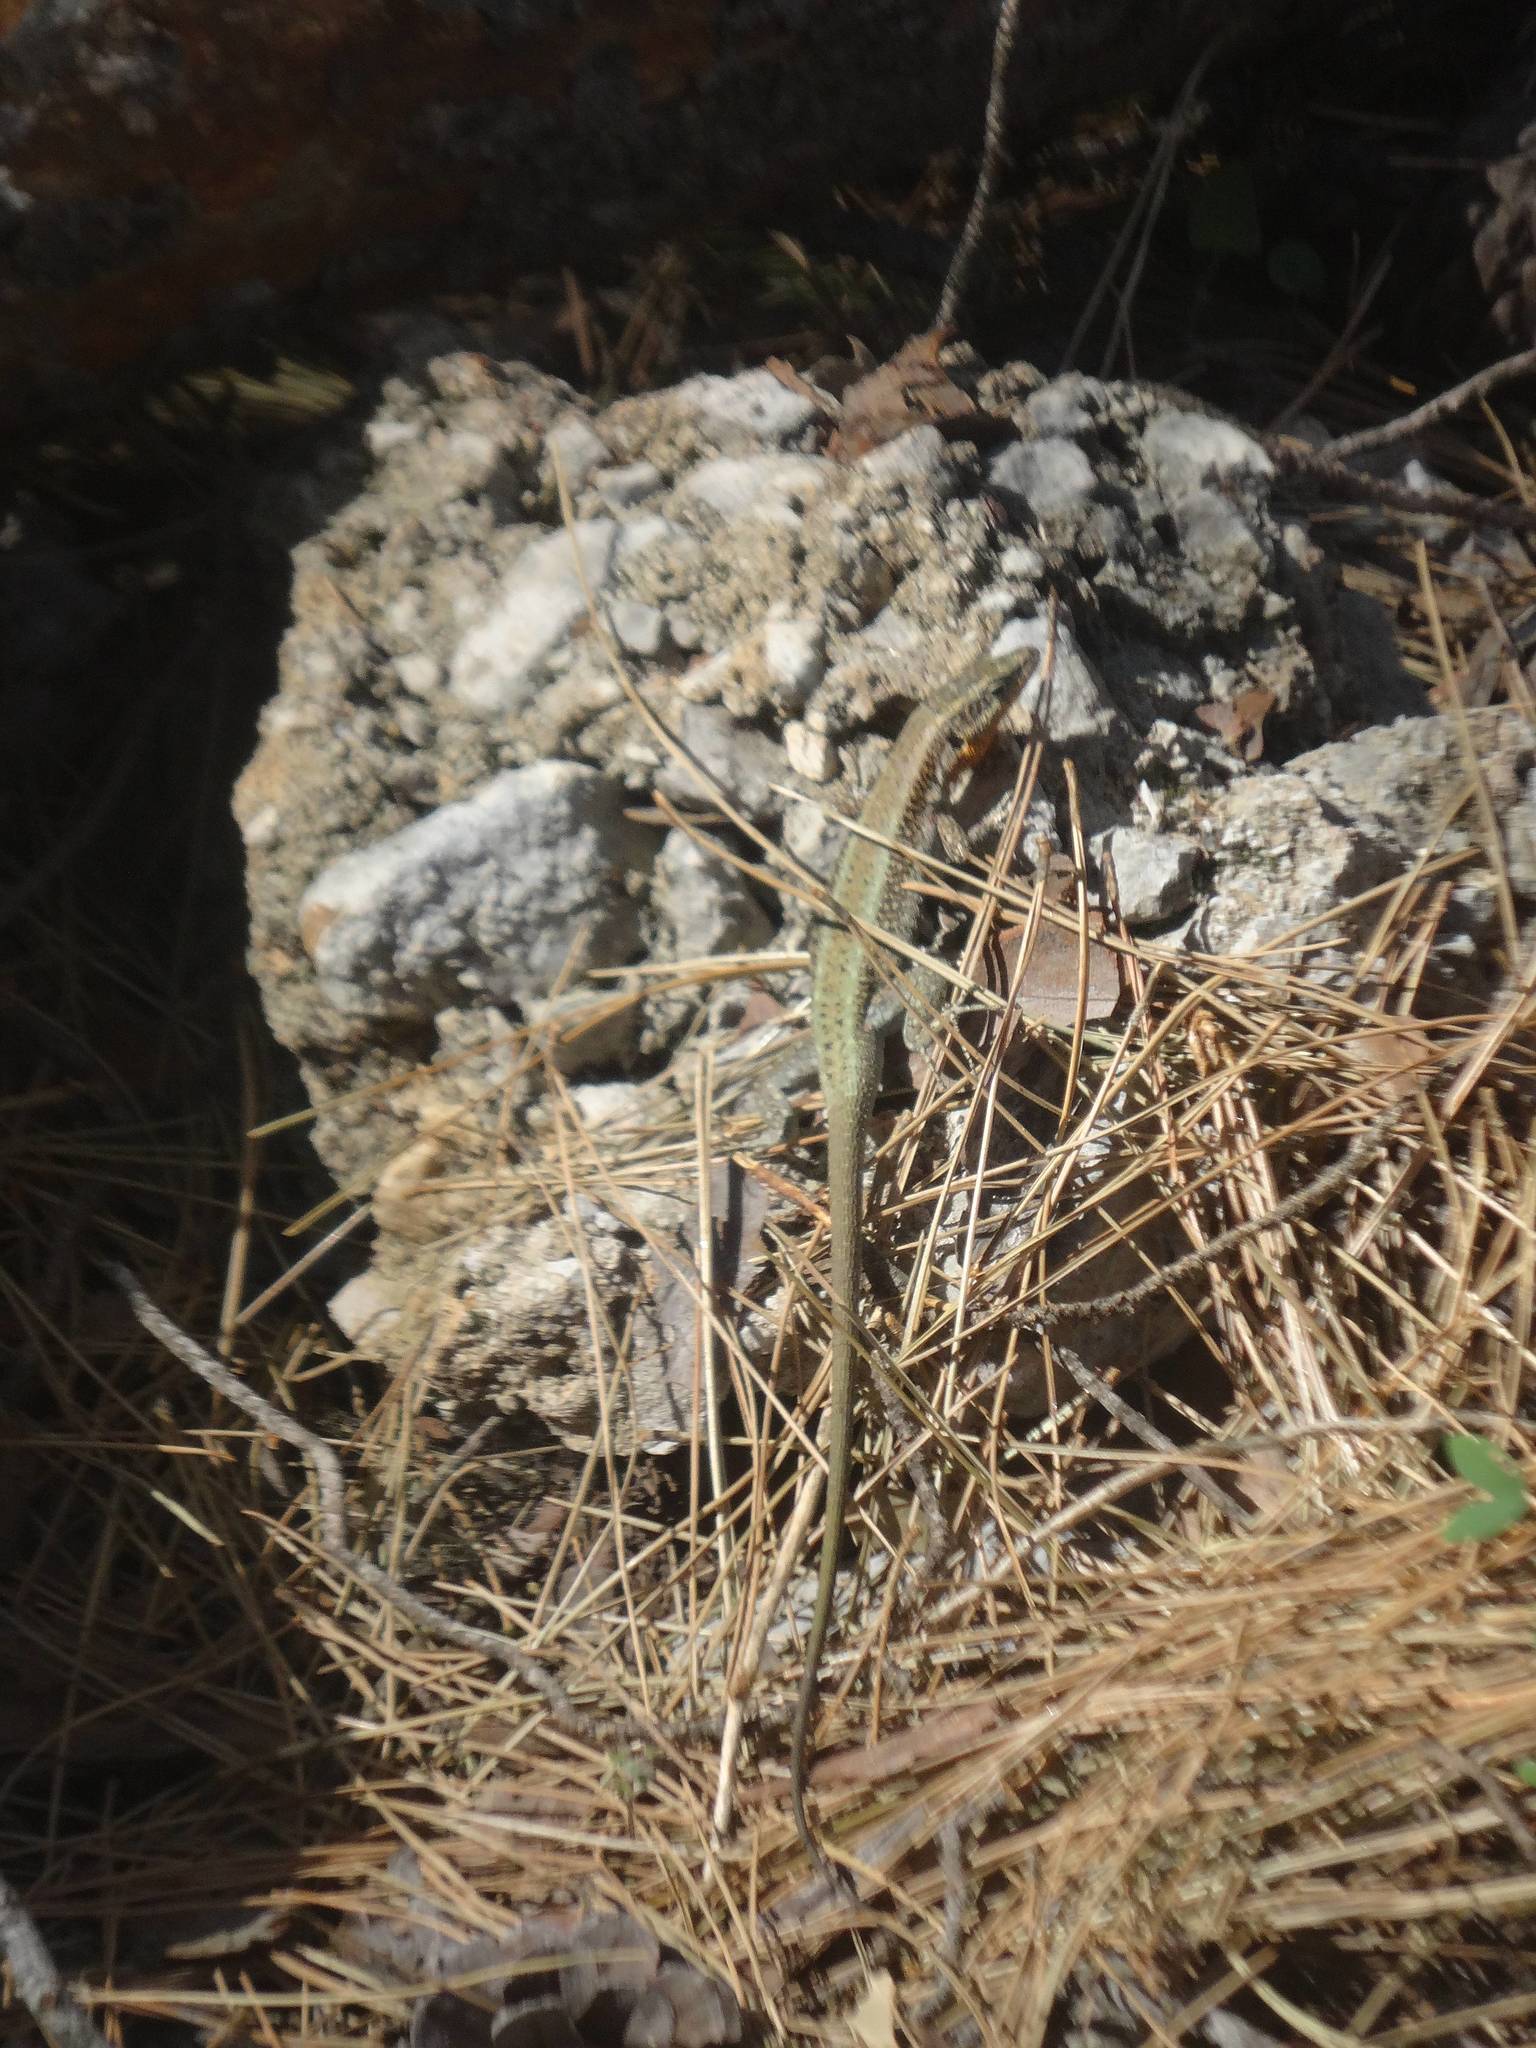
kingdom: Animalia
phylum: Chordata
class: Squamata
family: Lacertidae
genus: Anatololacerta
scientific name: Anatololacerta finikensis
